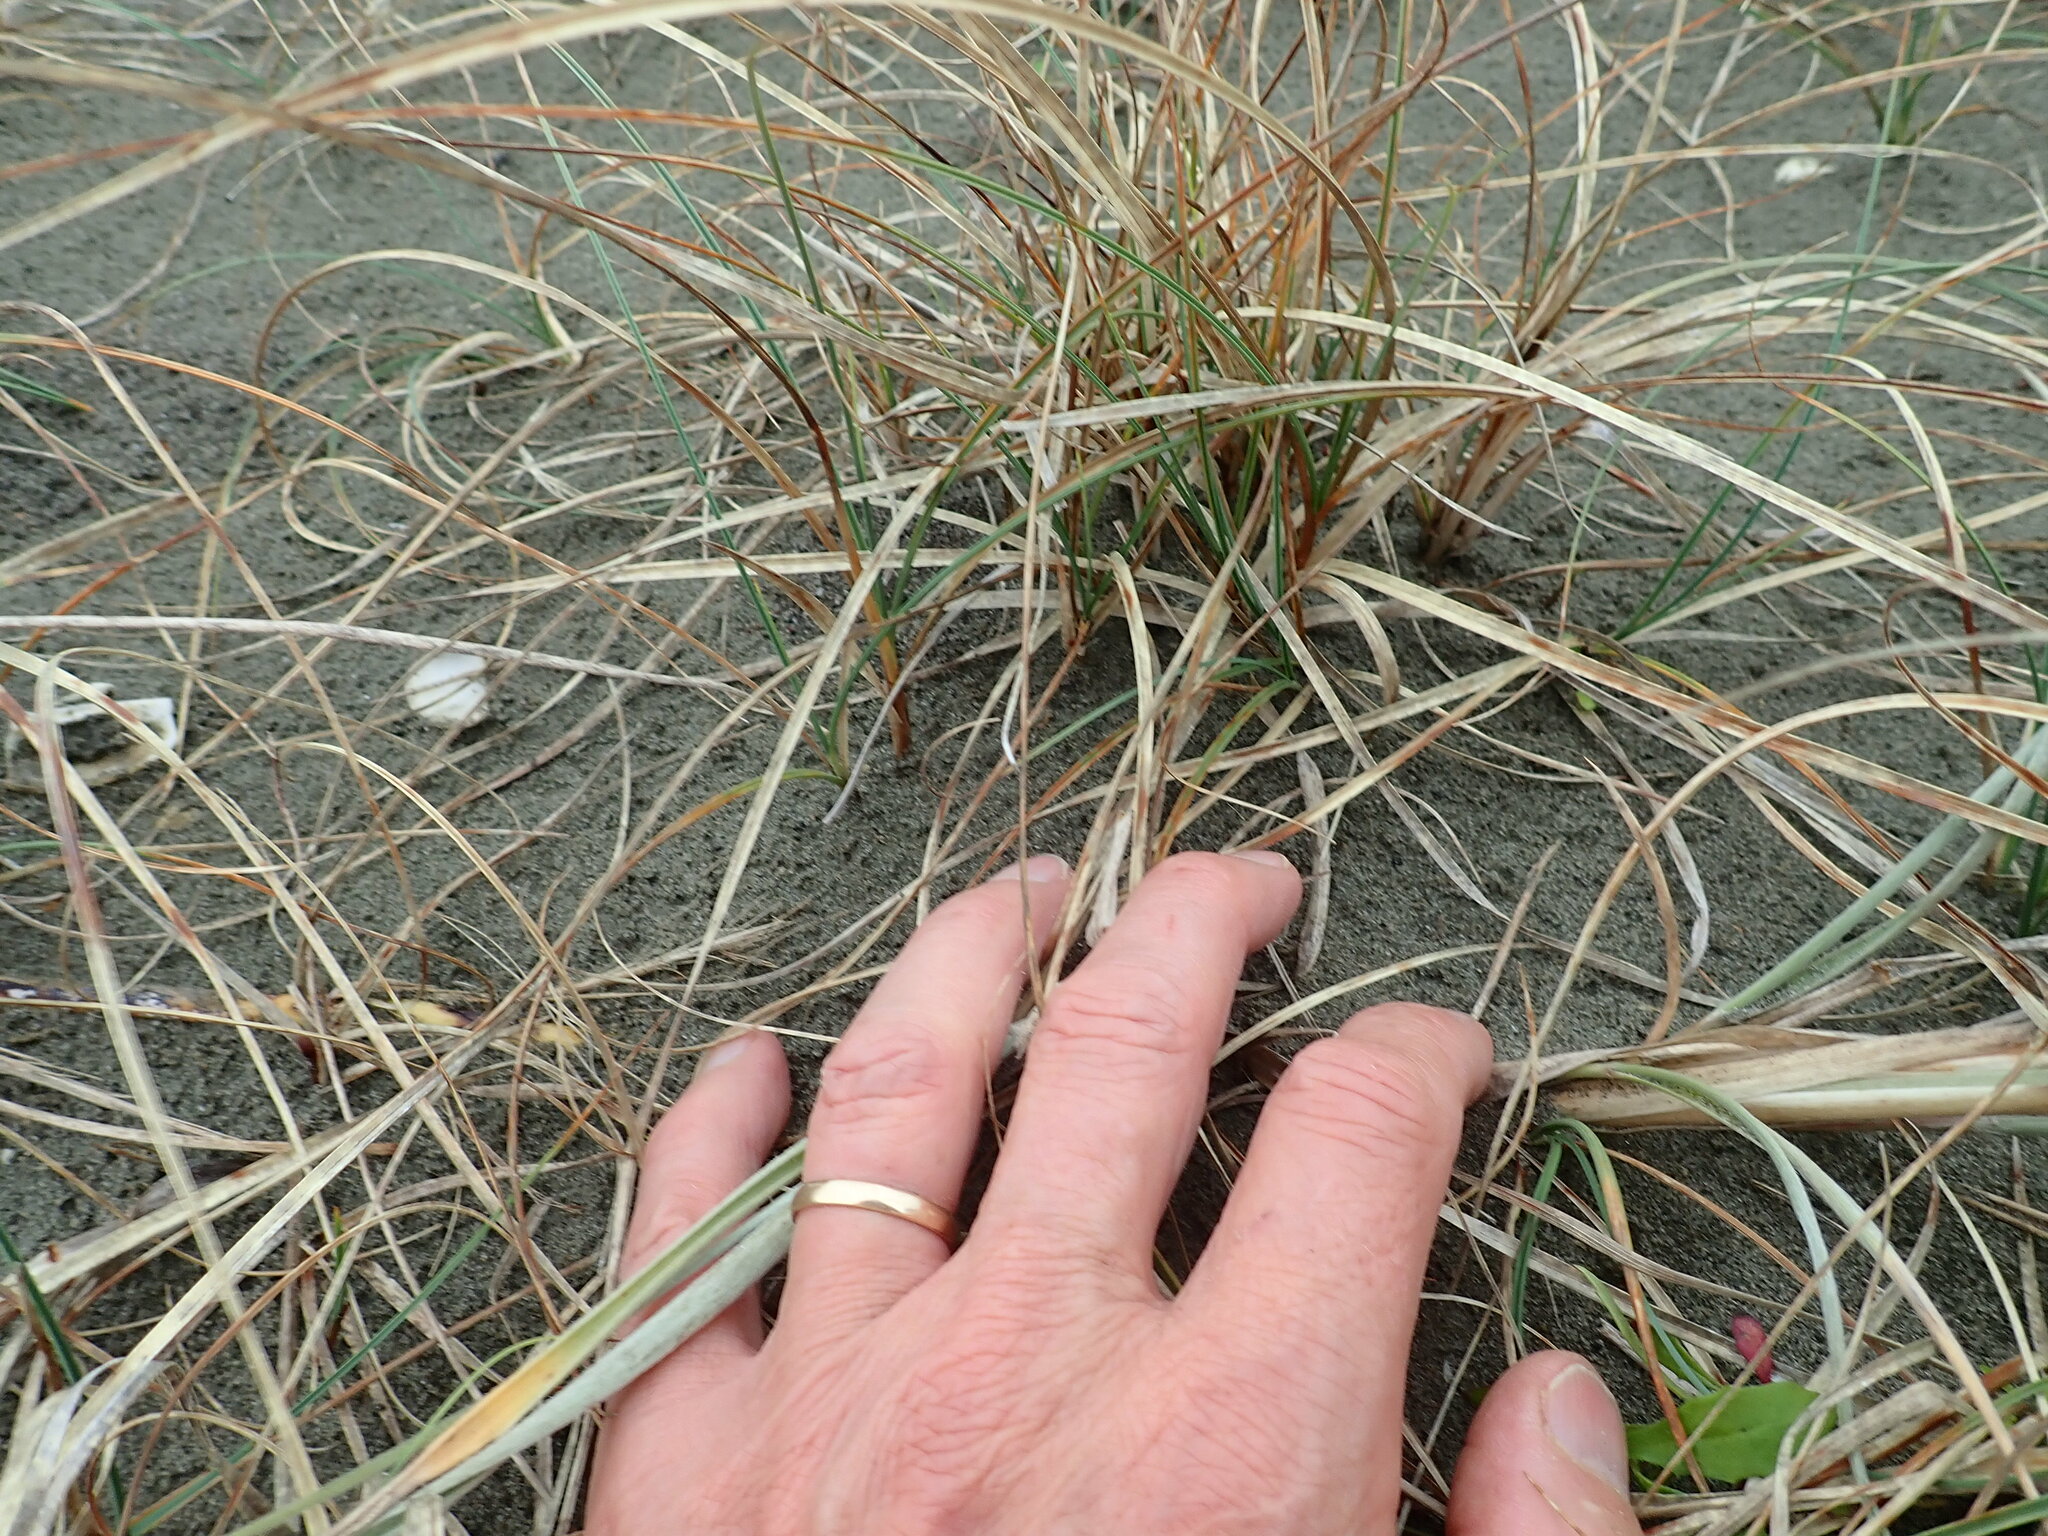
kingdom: Plantae
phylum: Tracheophyta
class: Liliopsida
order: Poales
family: Cyperaceae
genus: Carex
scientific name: Carex pumila
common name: Dwarf sedge
